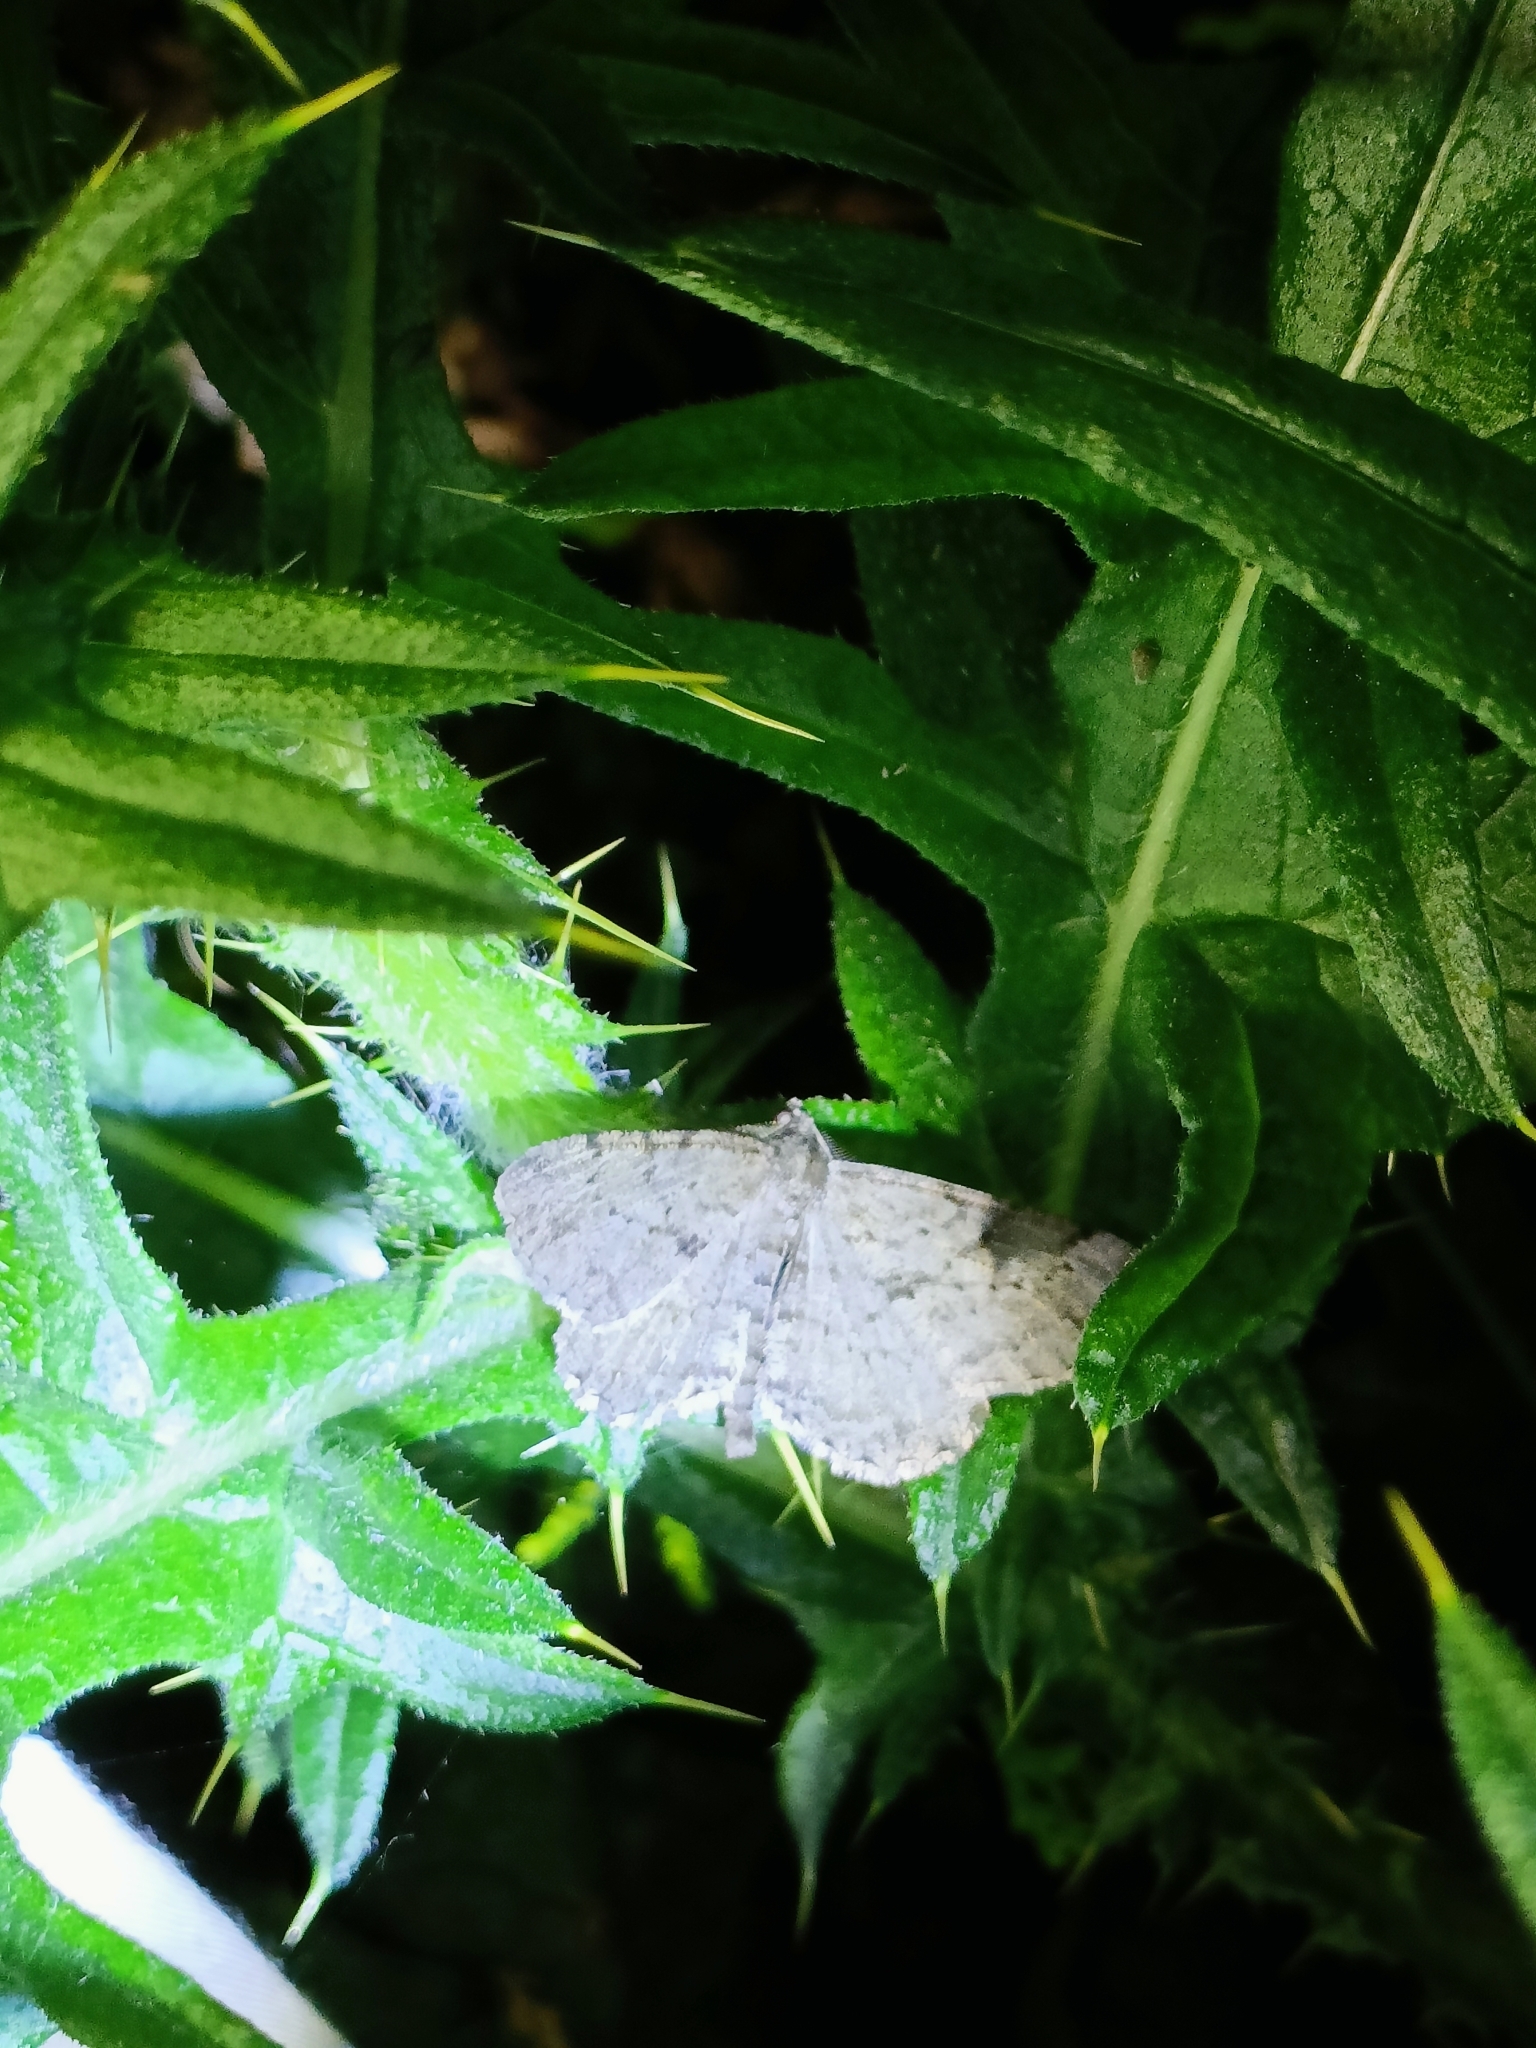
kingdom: Animalia
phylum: Arthropoda
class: Insecta
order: Lepidoptera
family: Geometridae
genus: Peribatodes
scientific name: Peribatodes rhomboidaria
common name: Willow beauty
